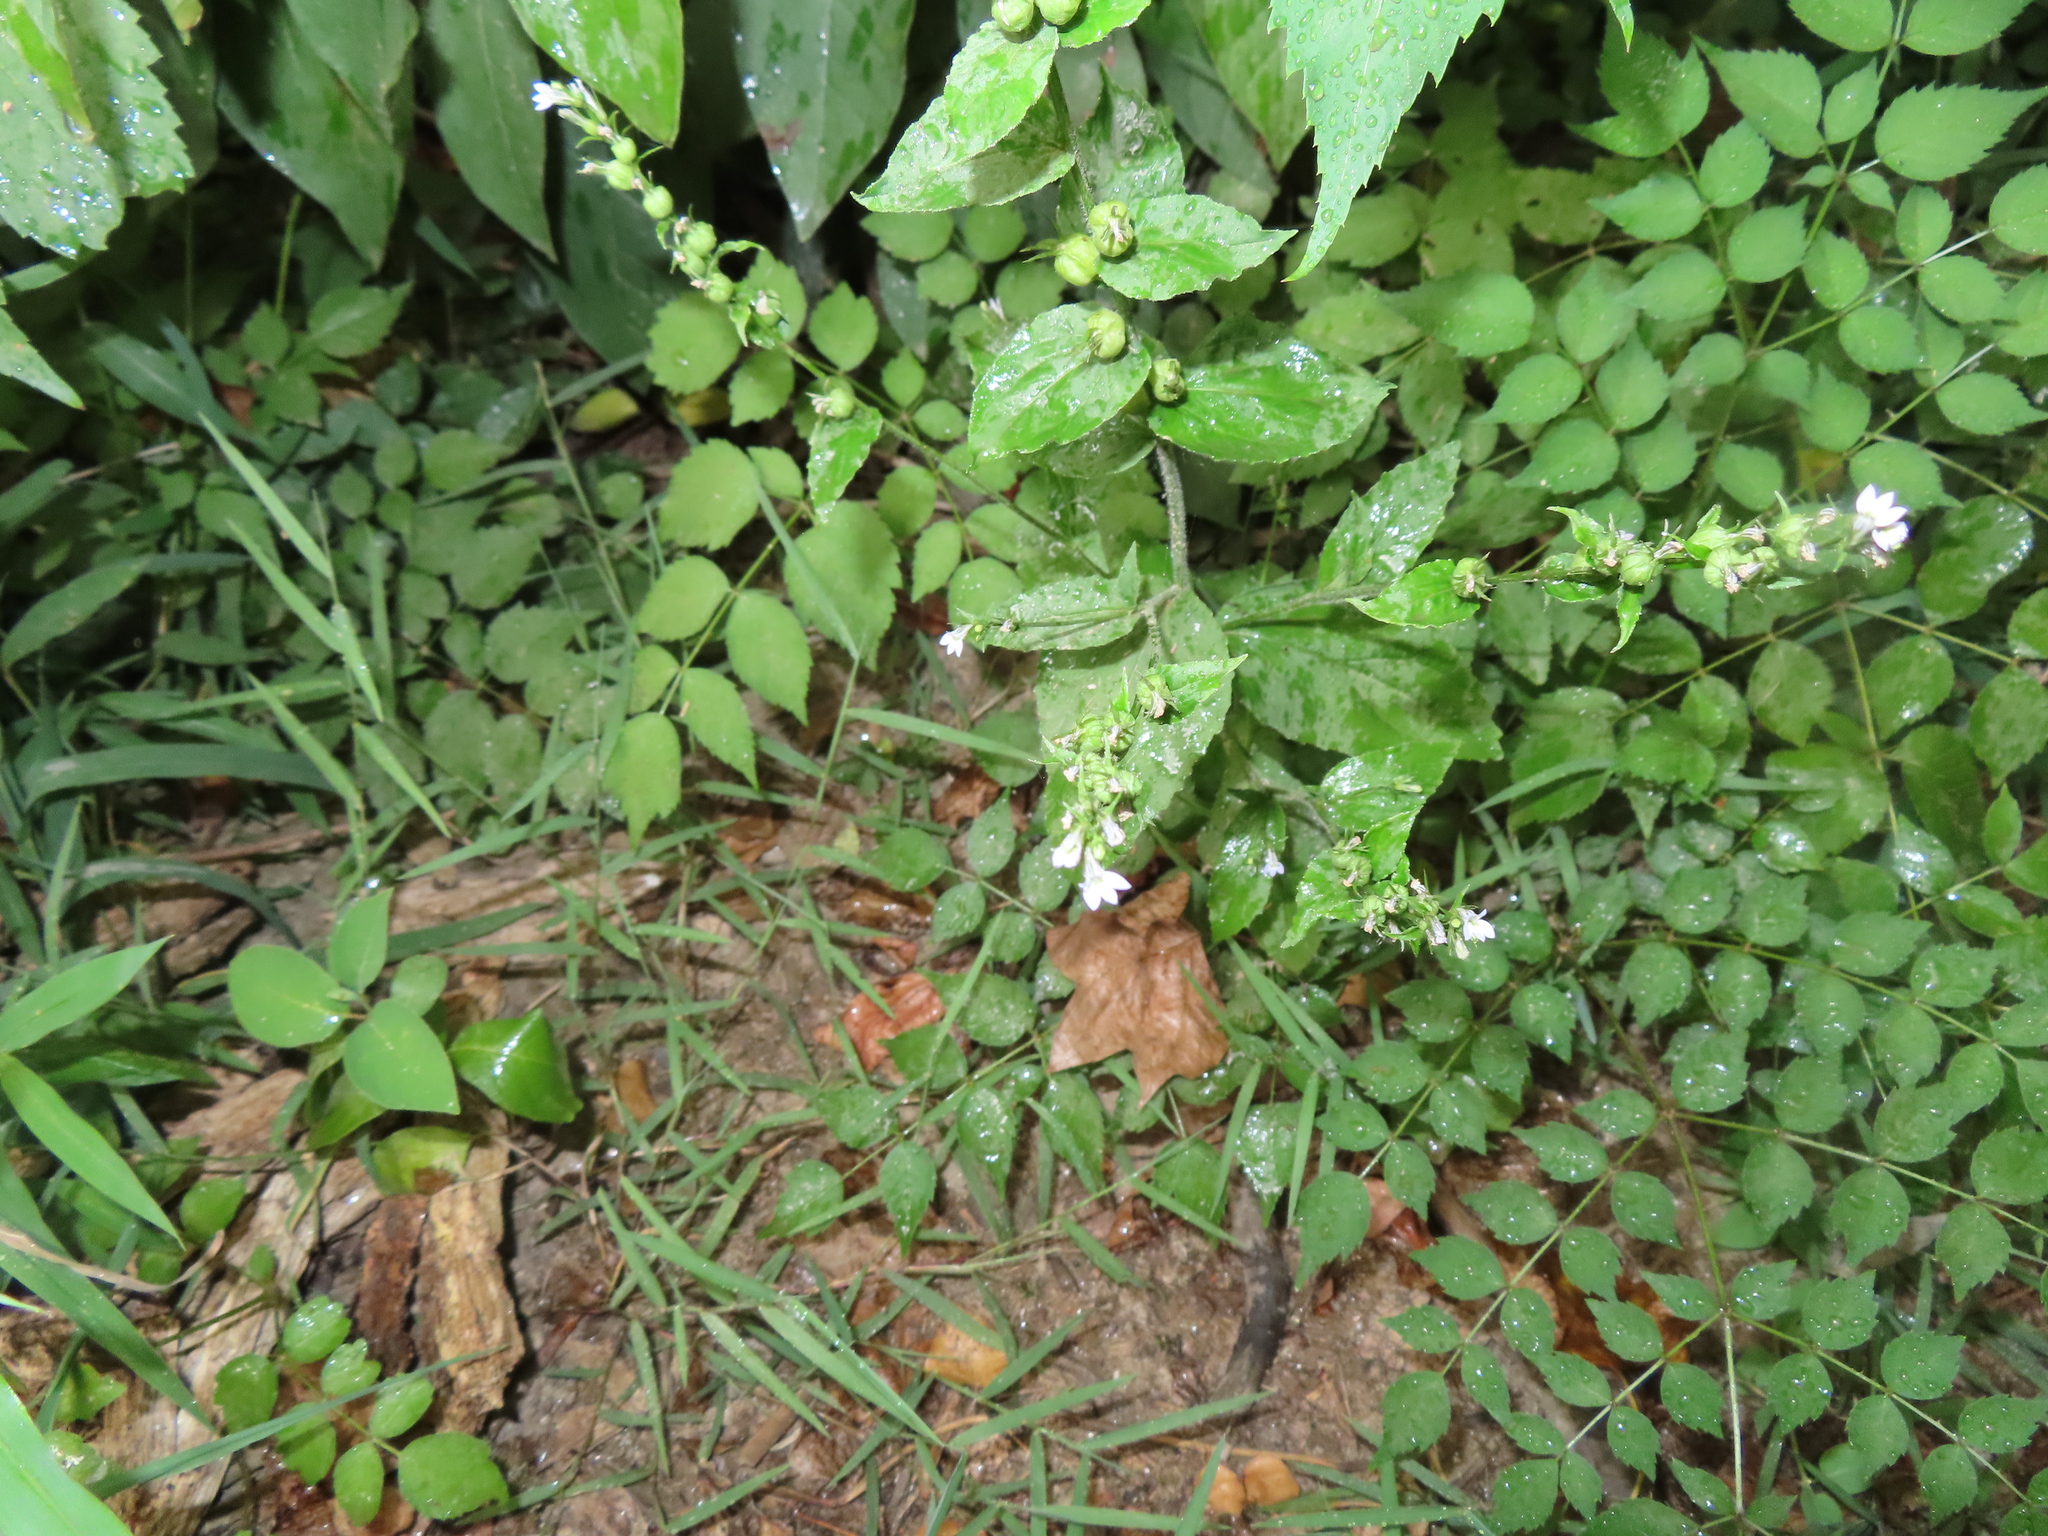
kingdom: Plantae
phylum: Tracheophyta
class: Magnoliopsida
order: Asterales
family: Campanulaceae
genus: Lobelia
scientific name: Lobelia inflata
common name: Indian tobacco
